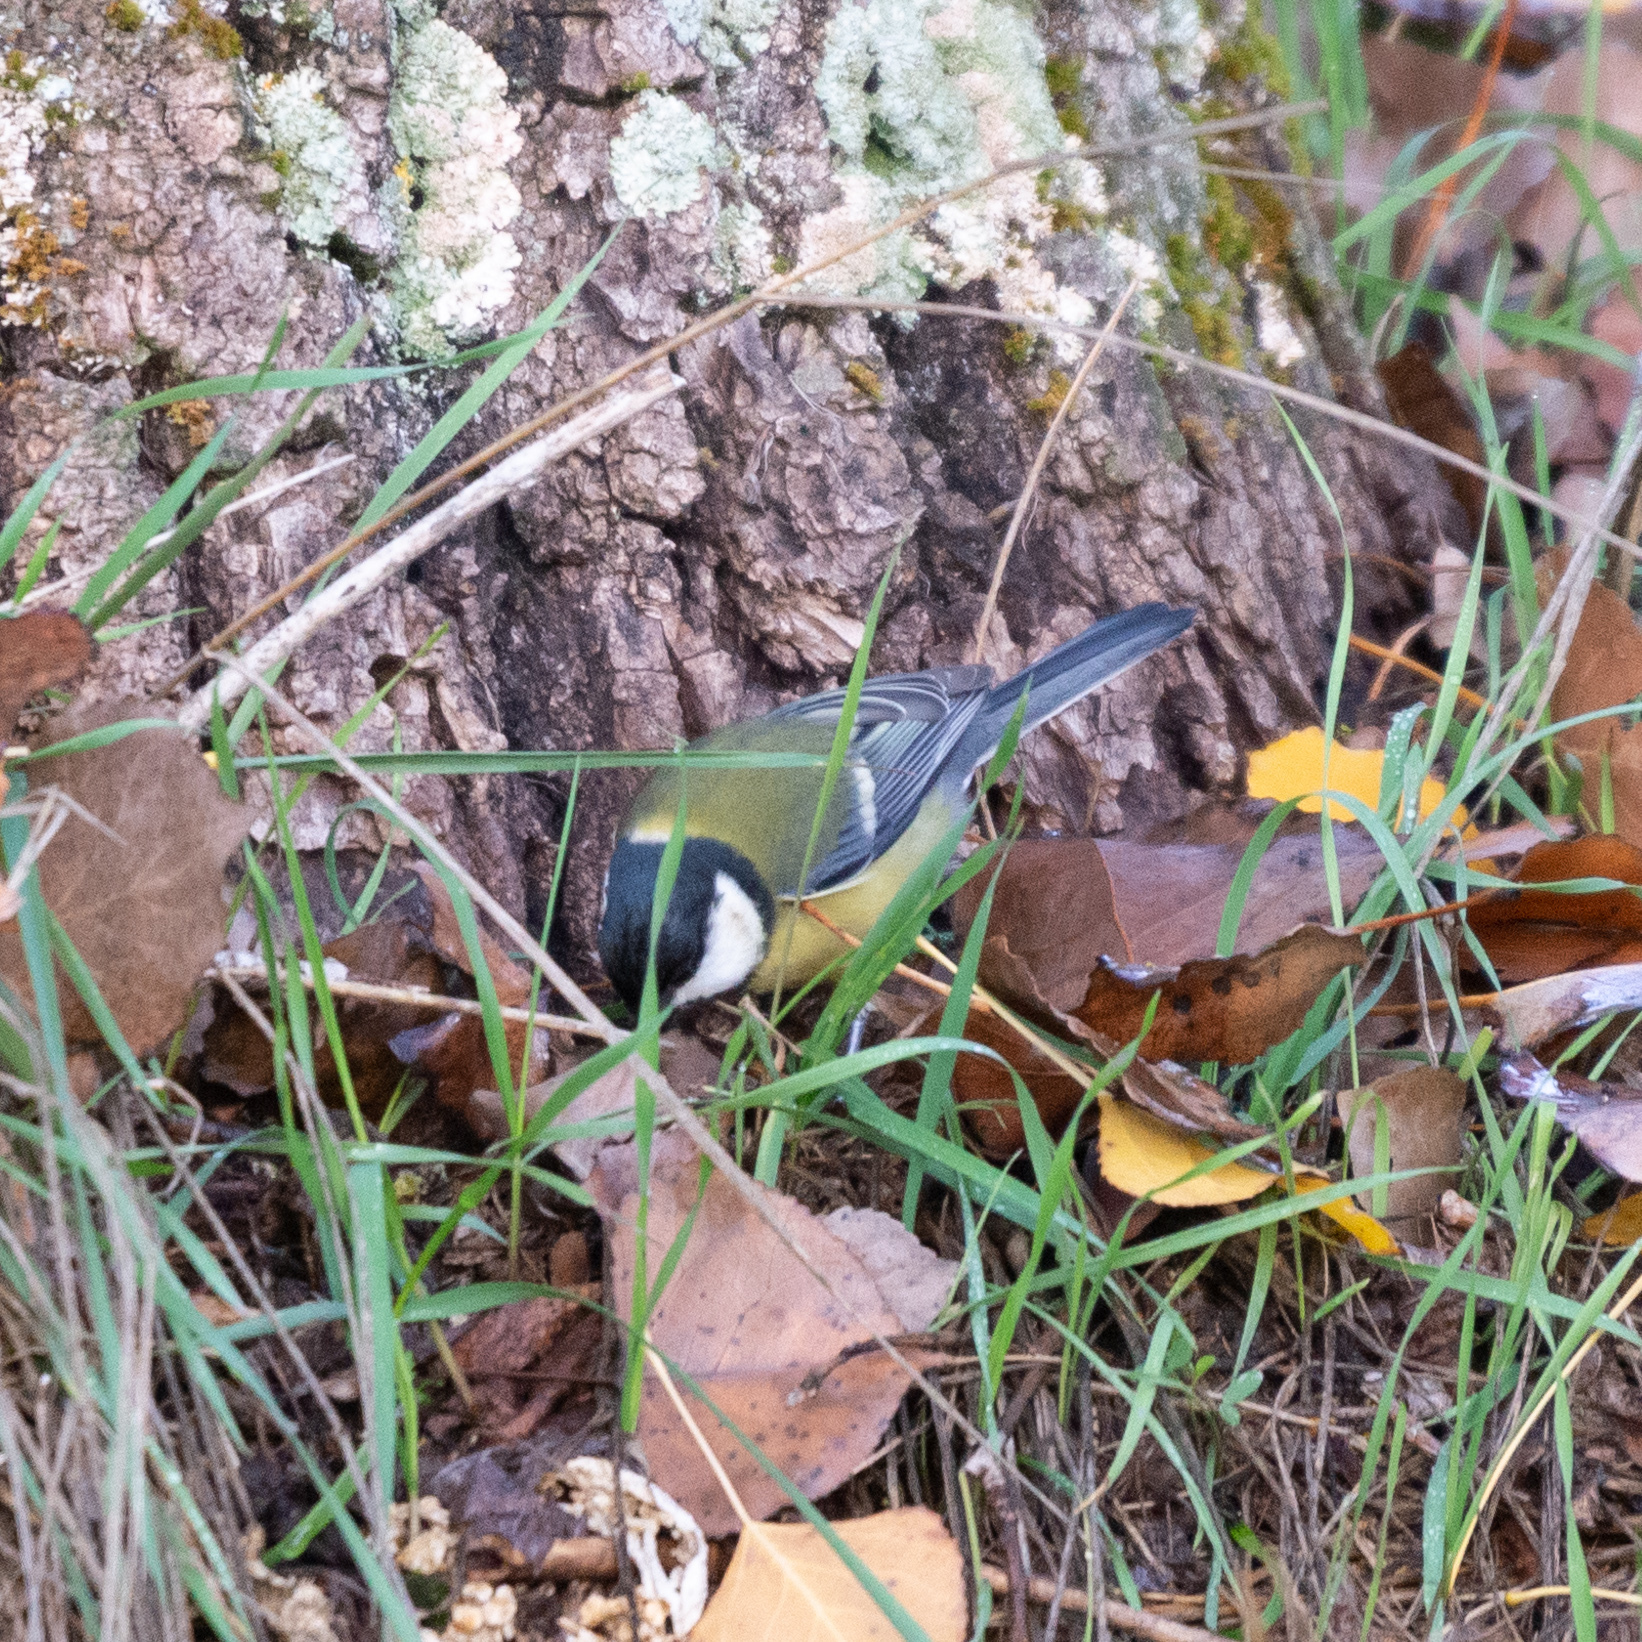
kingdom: Animalia
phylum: Chordata
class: Aves
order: Passeriformes
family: Paridae
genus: Parus
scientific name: Parus major
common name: Great tit
